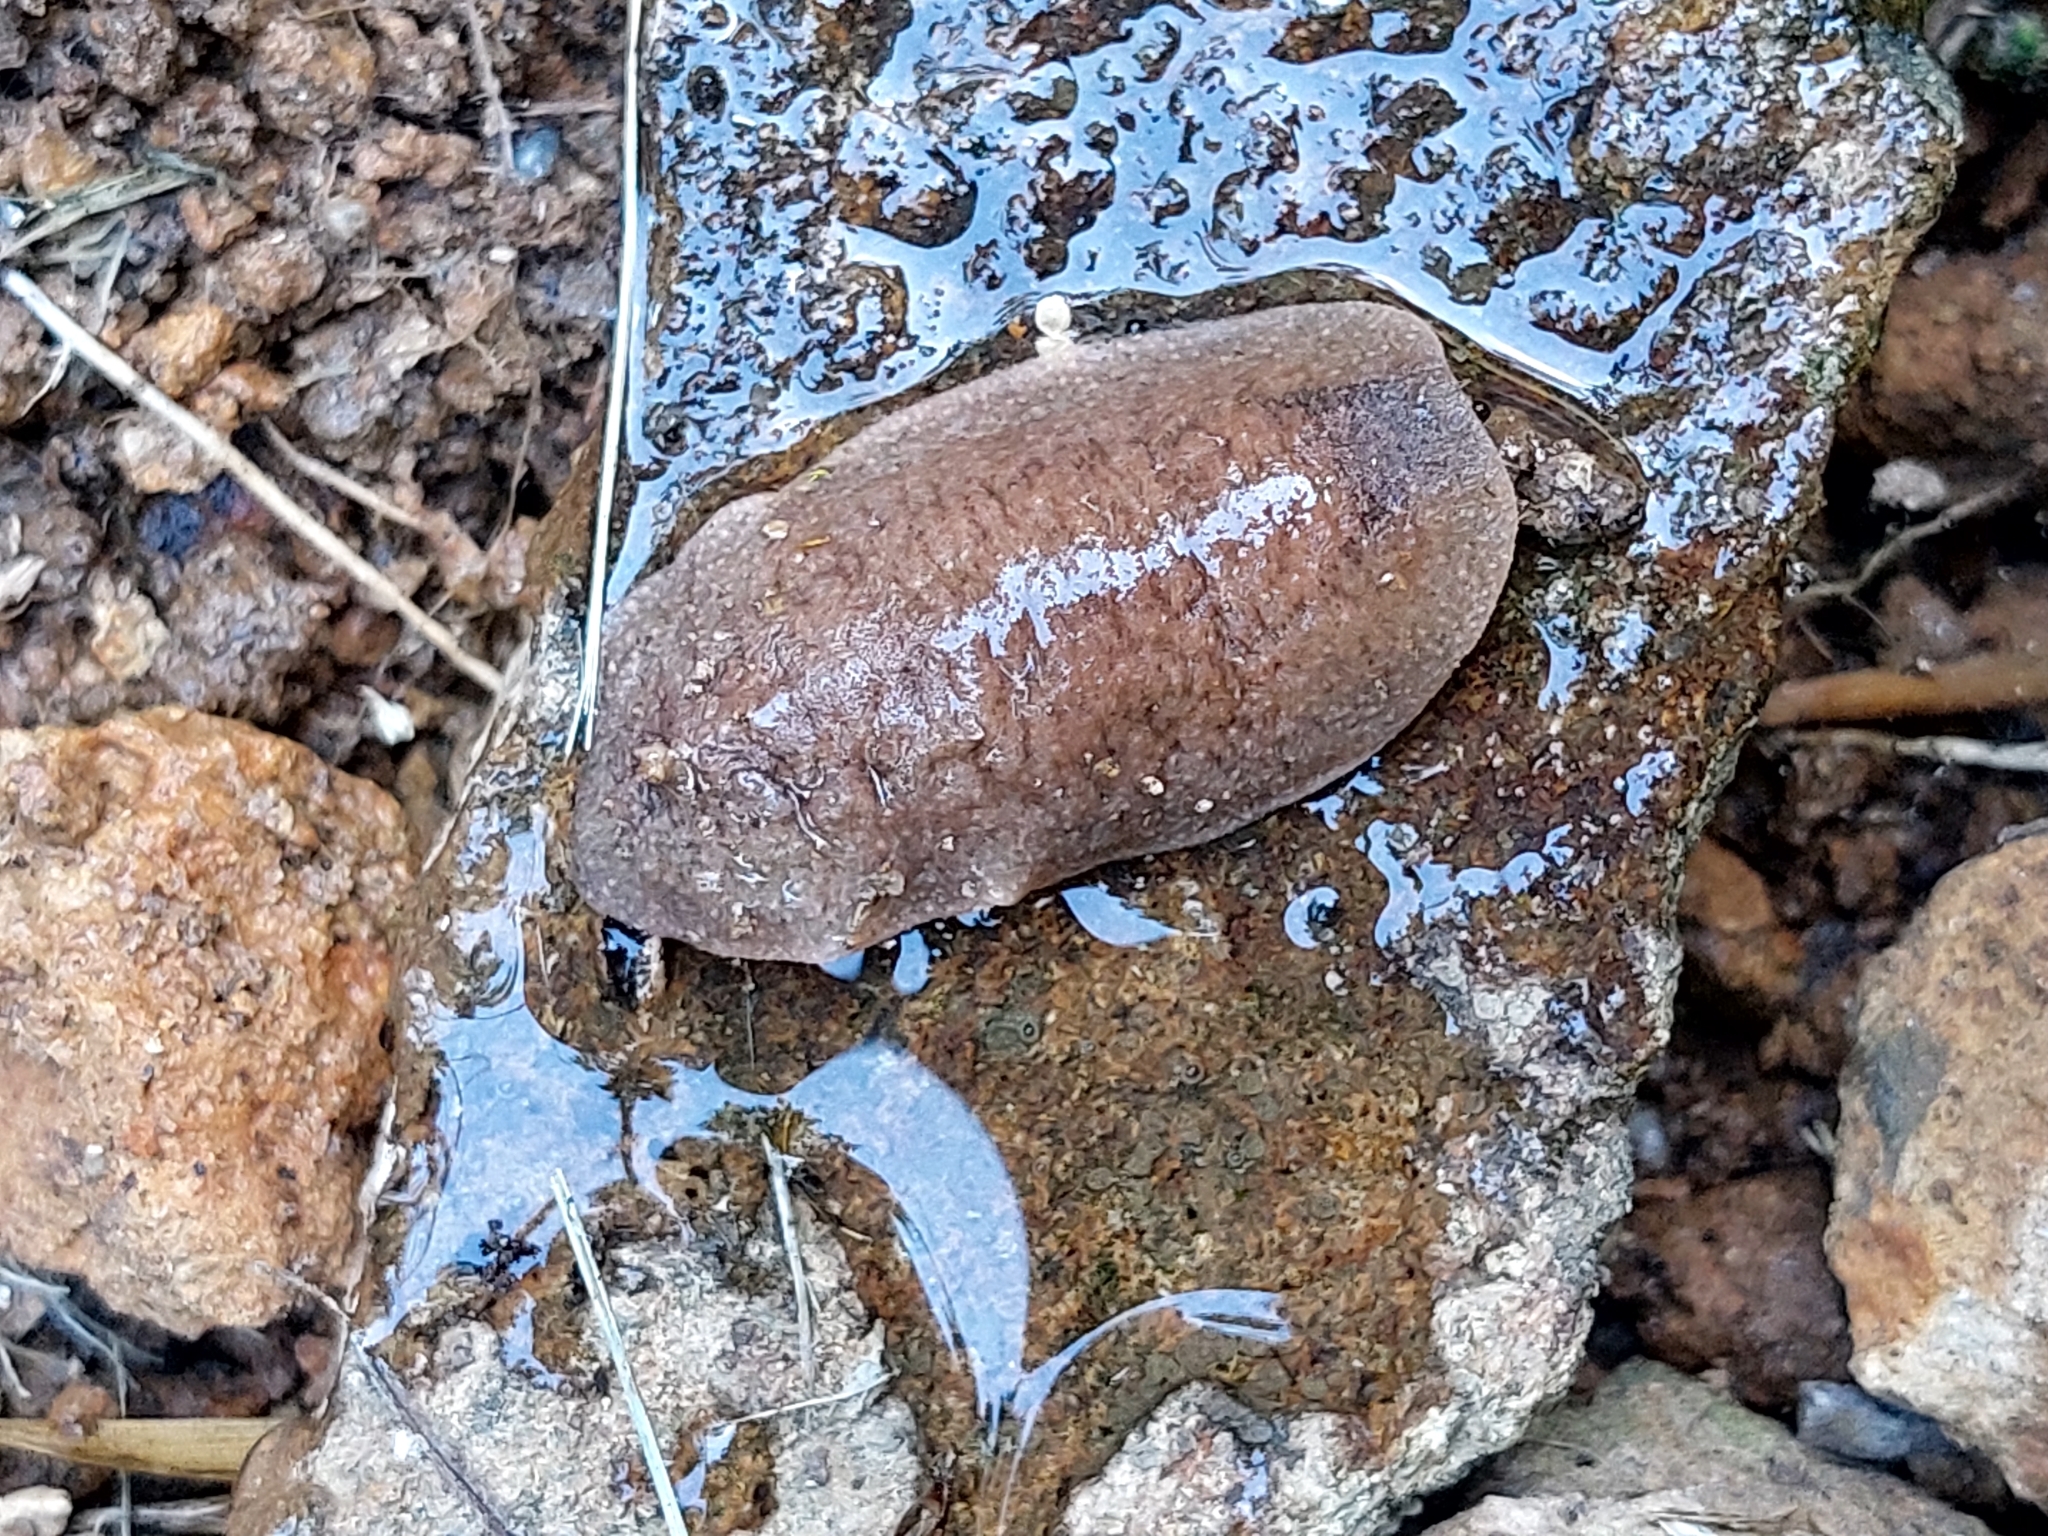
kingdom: Animalia
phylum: Mollusca
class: Gastropoda
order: Systellommatophora
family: Veronicellidae
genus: Leidyula
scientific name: Leidyula moreleti
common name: Tan leatherleaf
